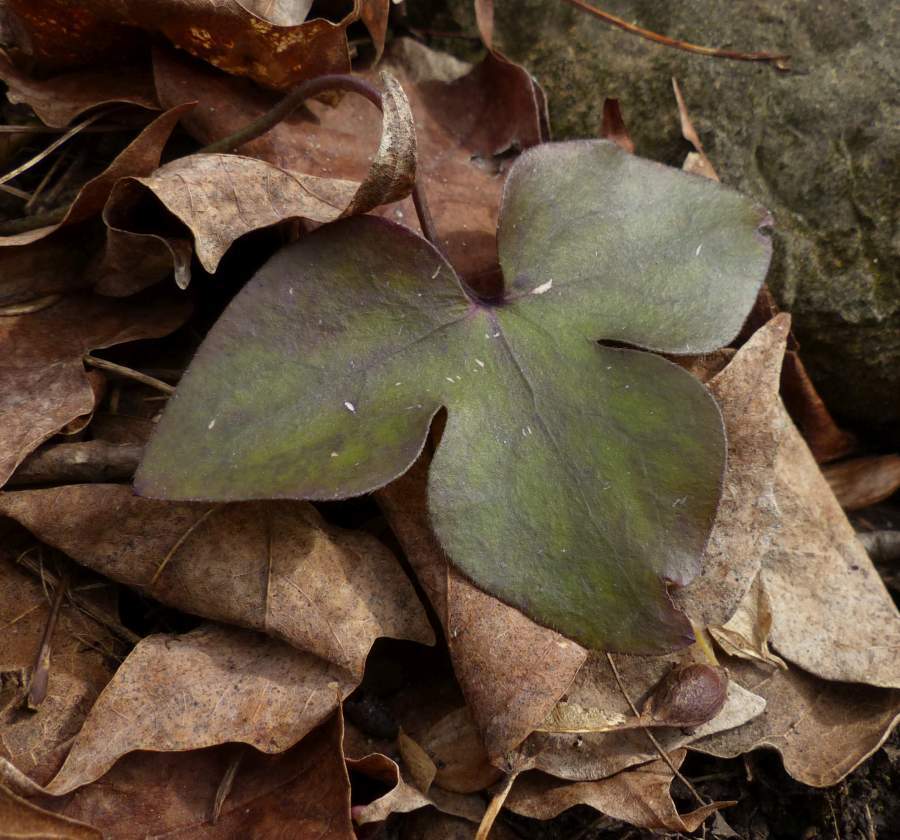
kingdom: Plantae
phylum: Tracheophyta
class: Magnoliopsida
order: Ranunculales
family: Ranunculaceae
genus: Hepatica
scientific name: Hepatica acutiloba
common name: Sharp-lobed hepatica
